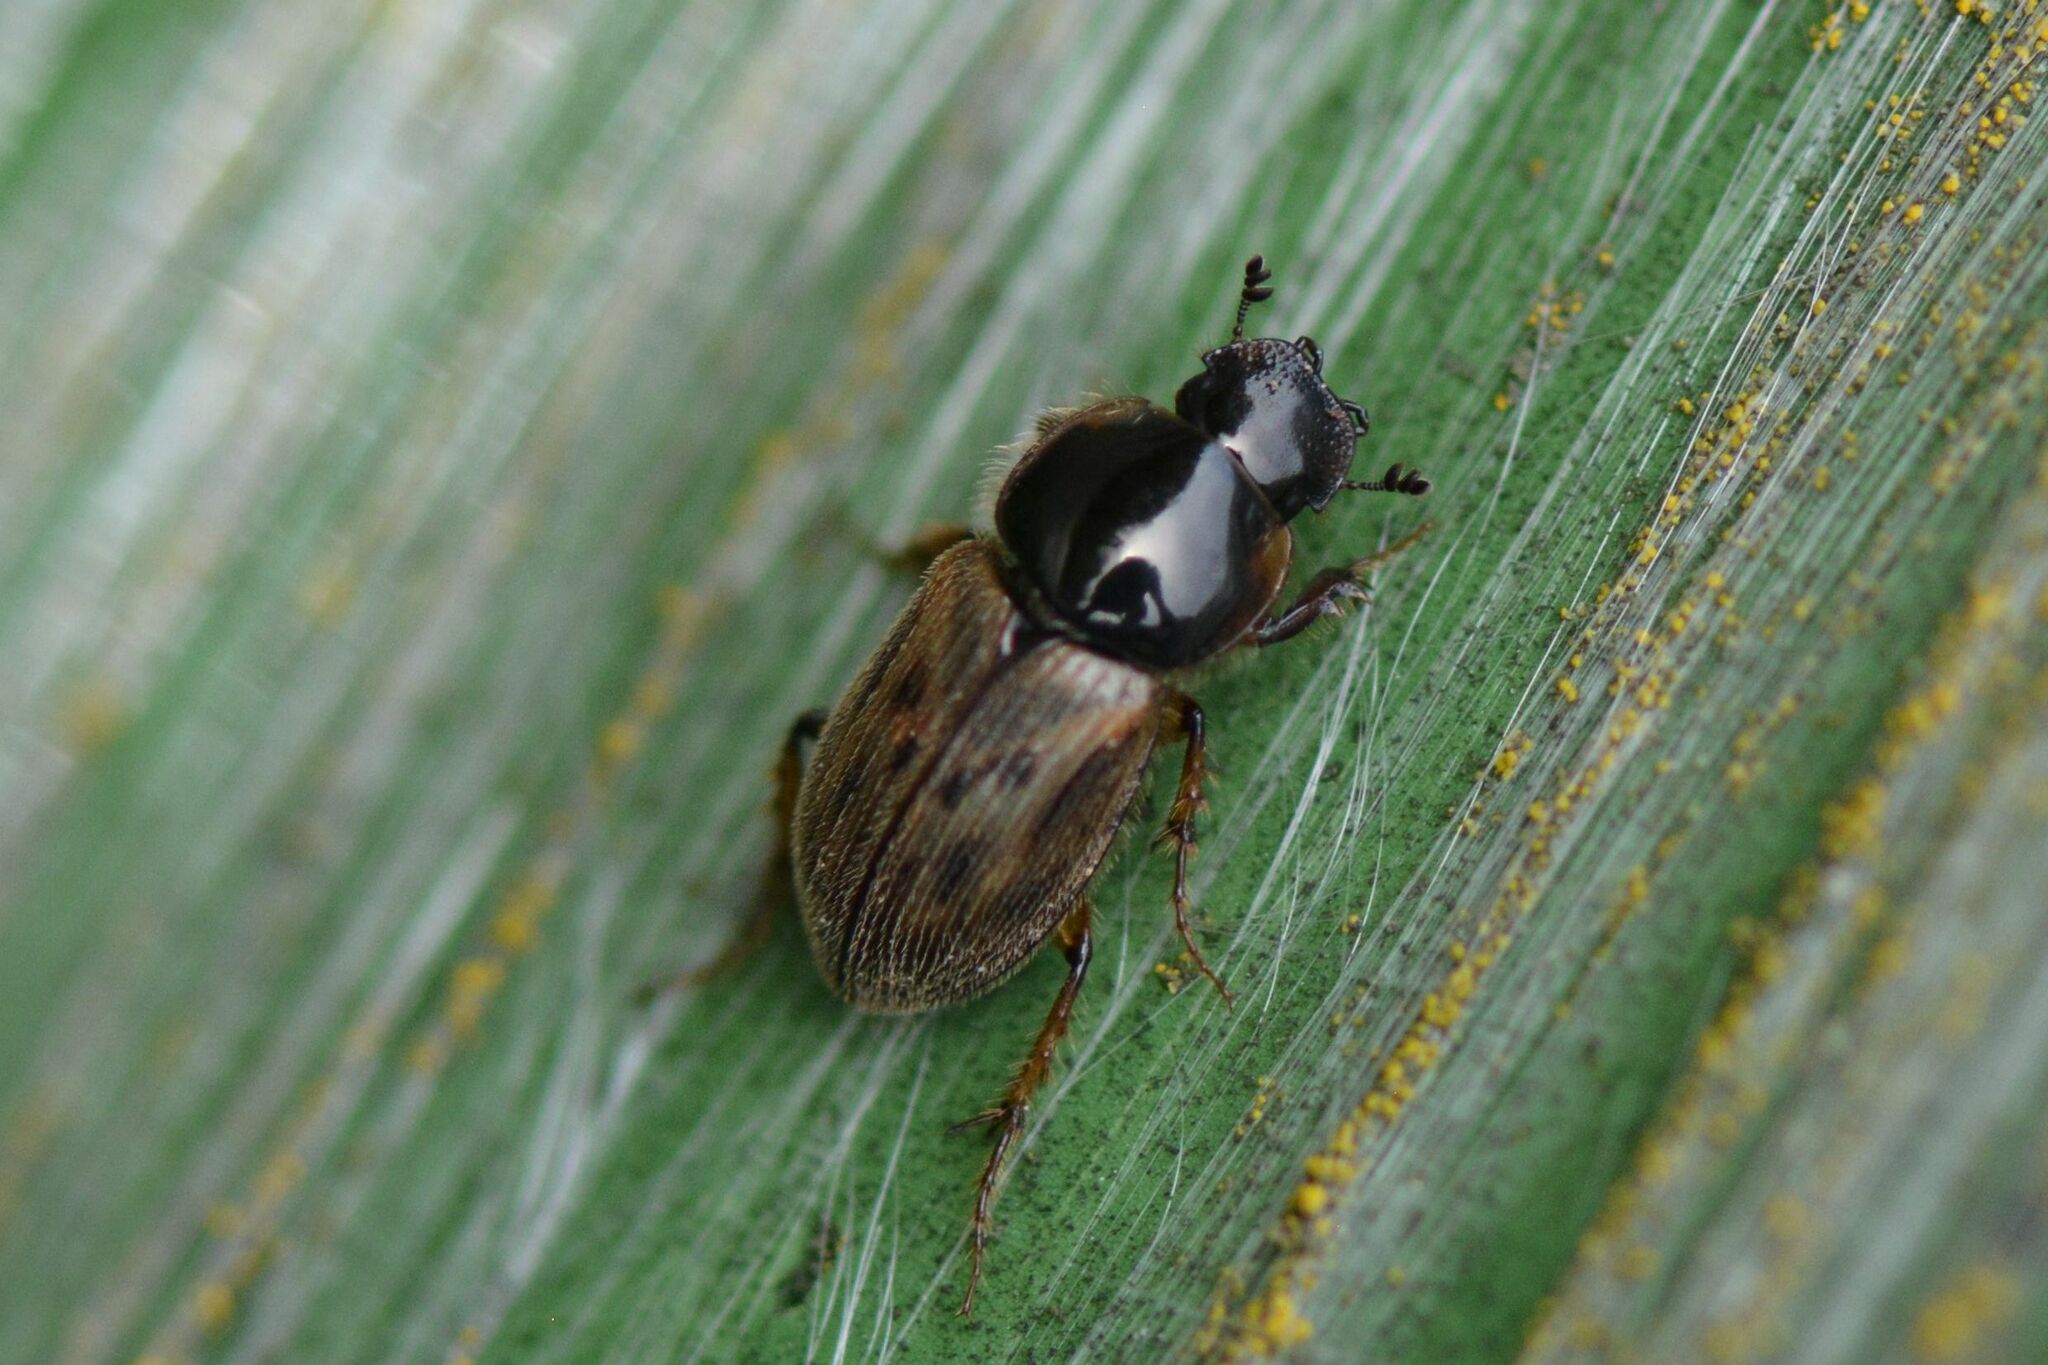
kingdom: Animalia
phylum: Arthropoda
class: Insecta
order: Coleoptera
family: Scarabaeidae
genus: Nimbus
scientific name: Nimbus contaminatus
